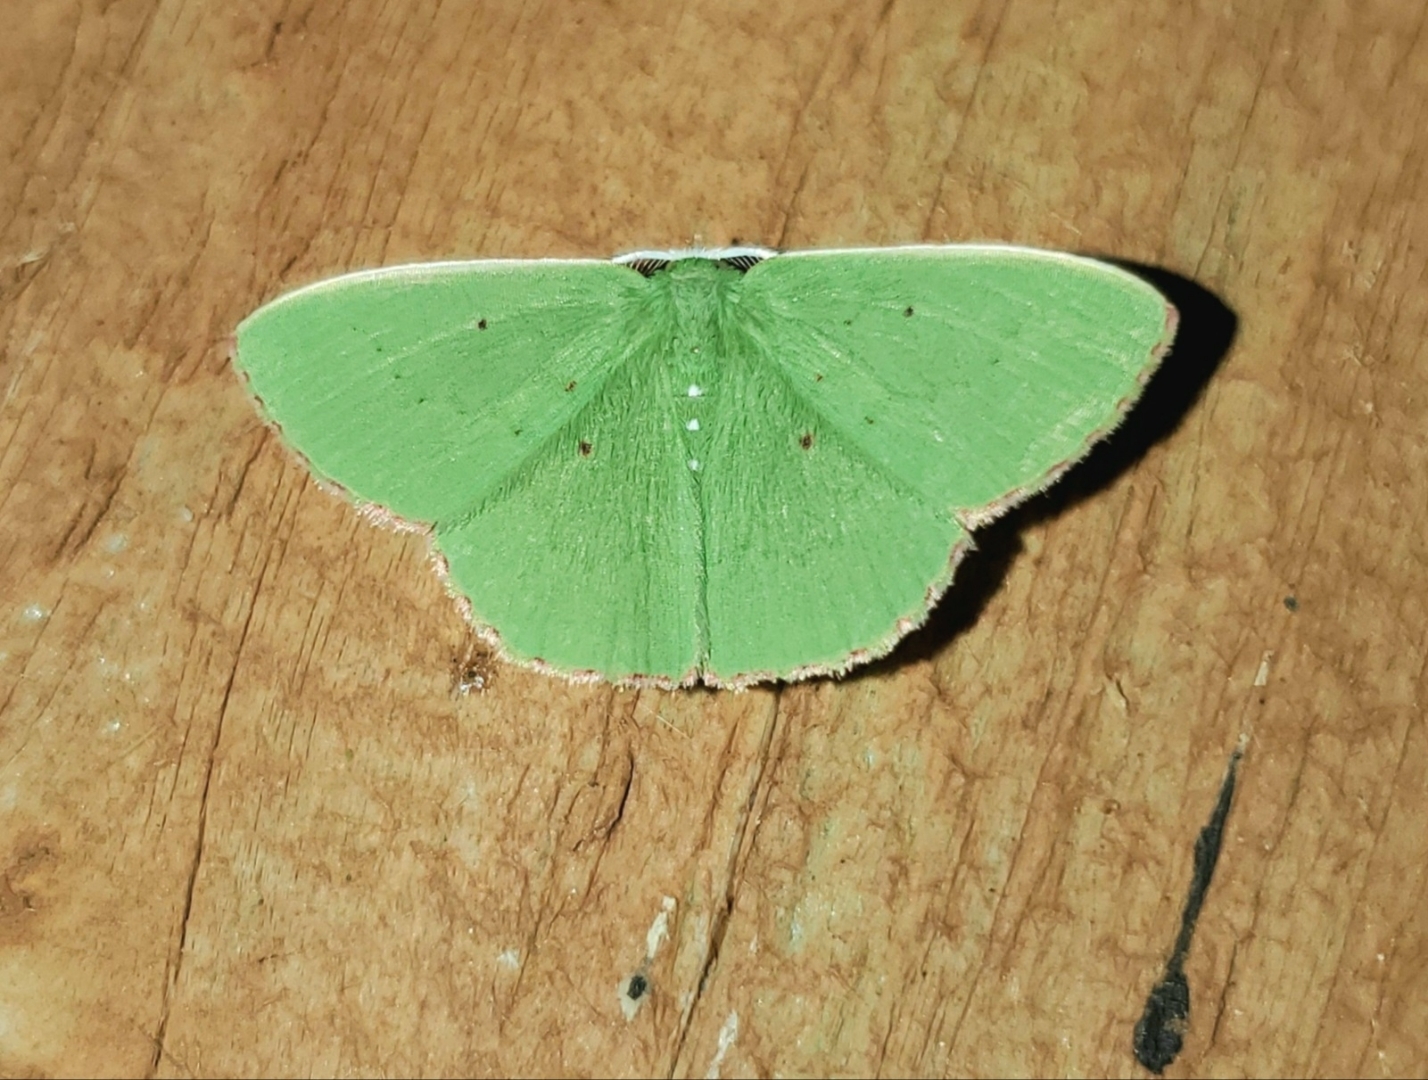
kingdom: Animalia
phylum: Arthropoda
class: Insecta
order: Lepidoptera
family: Geometridae
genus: Phrudocentra
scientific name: Phrudocentra centrifugaria
